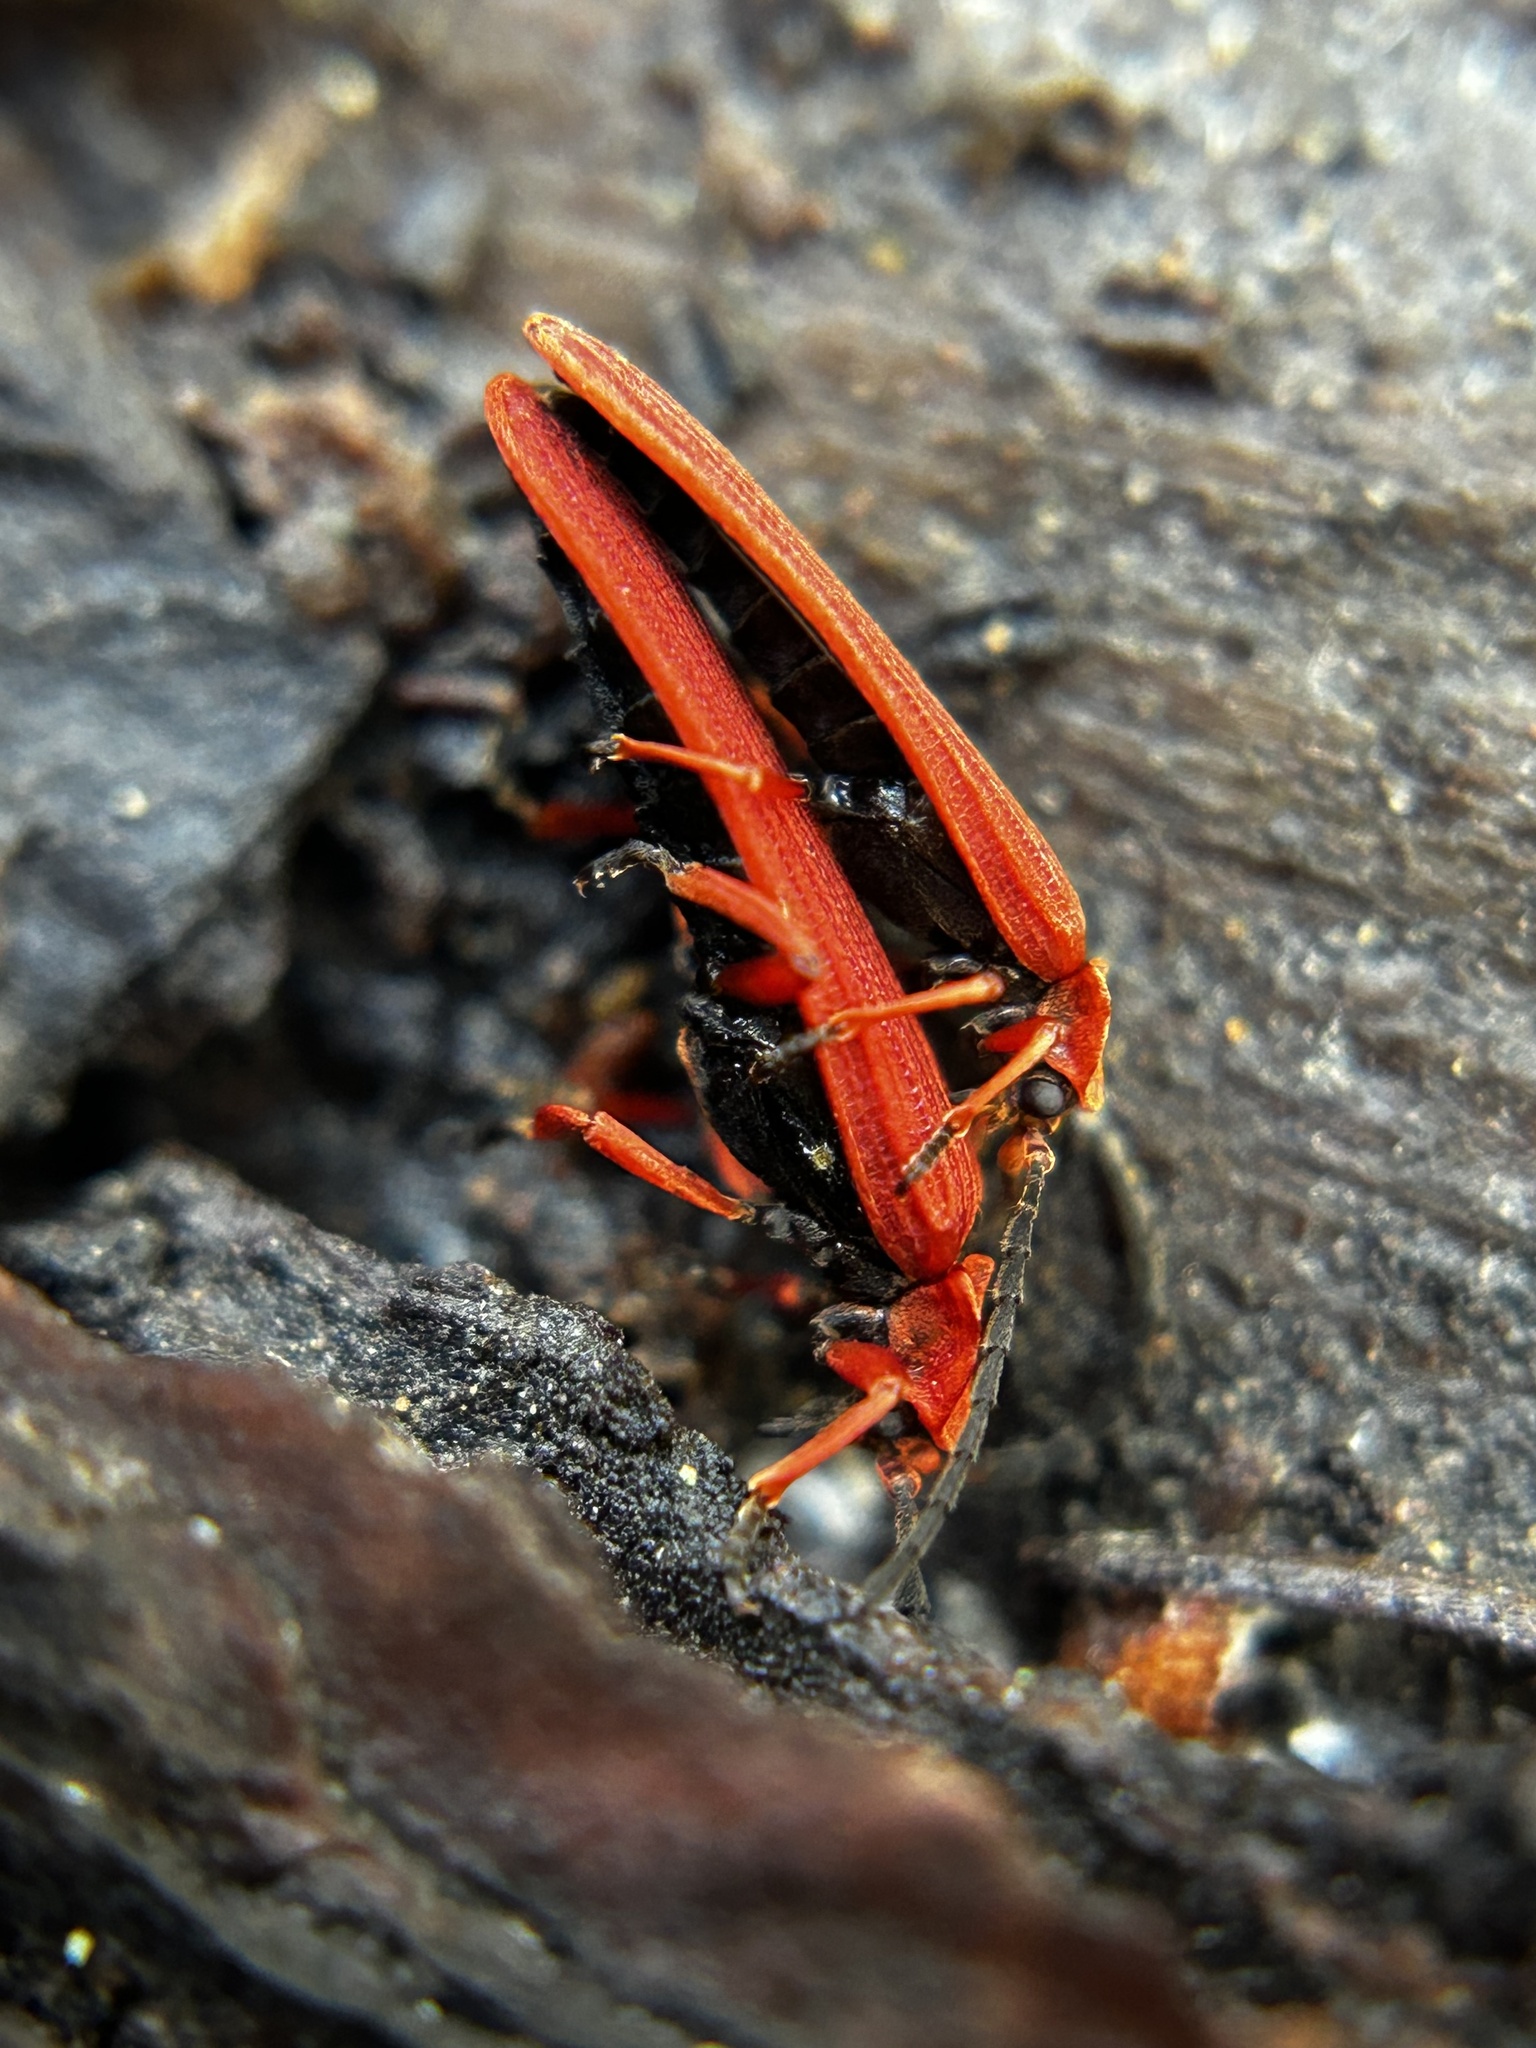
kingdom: Animalia
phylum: Arthropoda
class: Insecta
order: Coleoptera
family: Lycidae
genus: Dictyoptera
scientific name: Dictyoptera simplicipes
